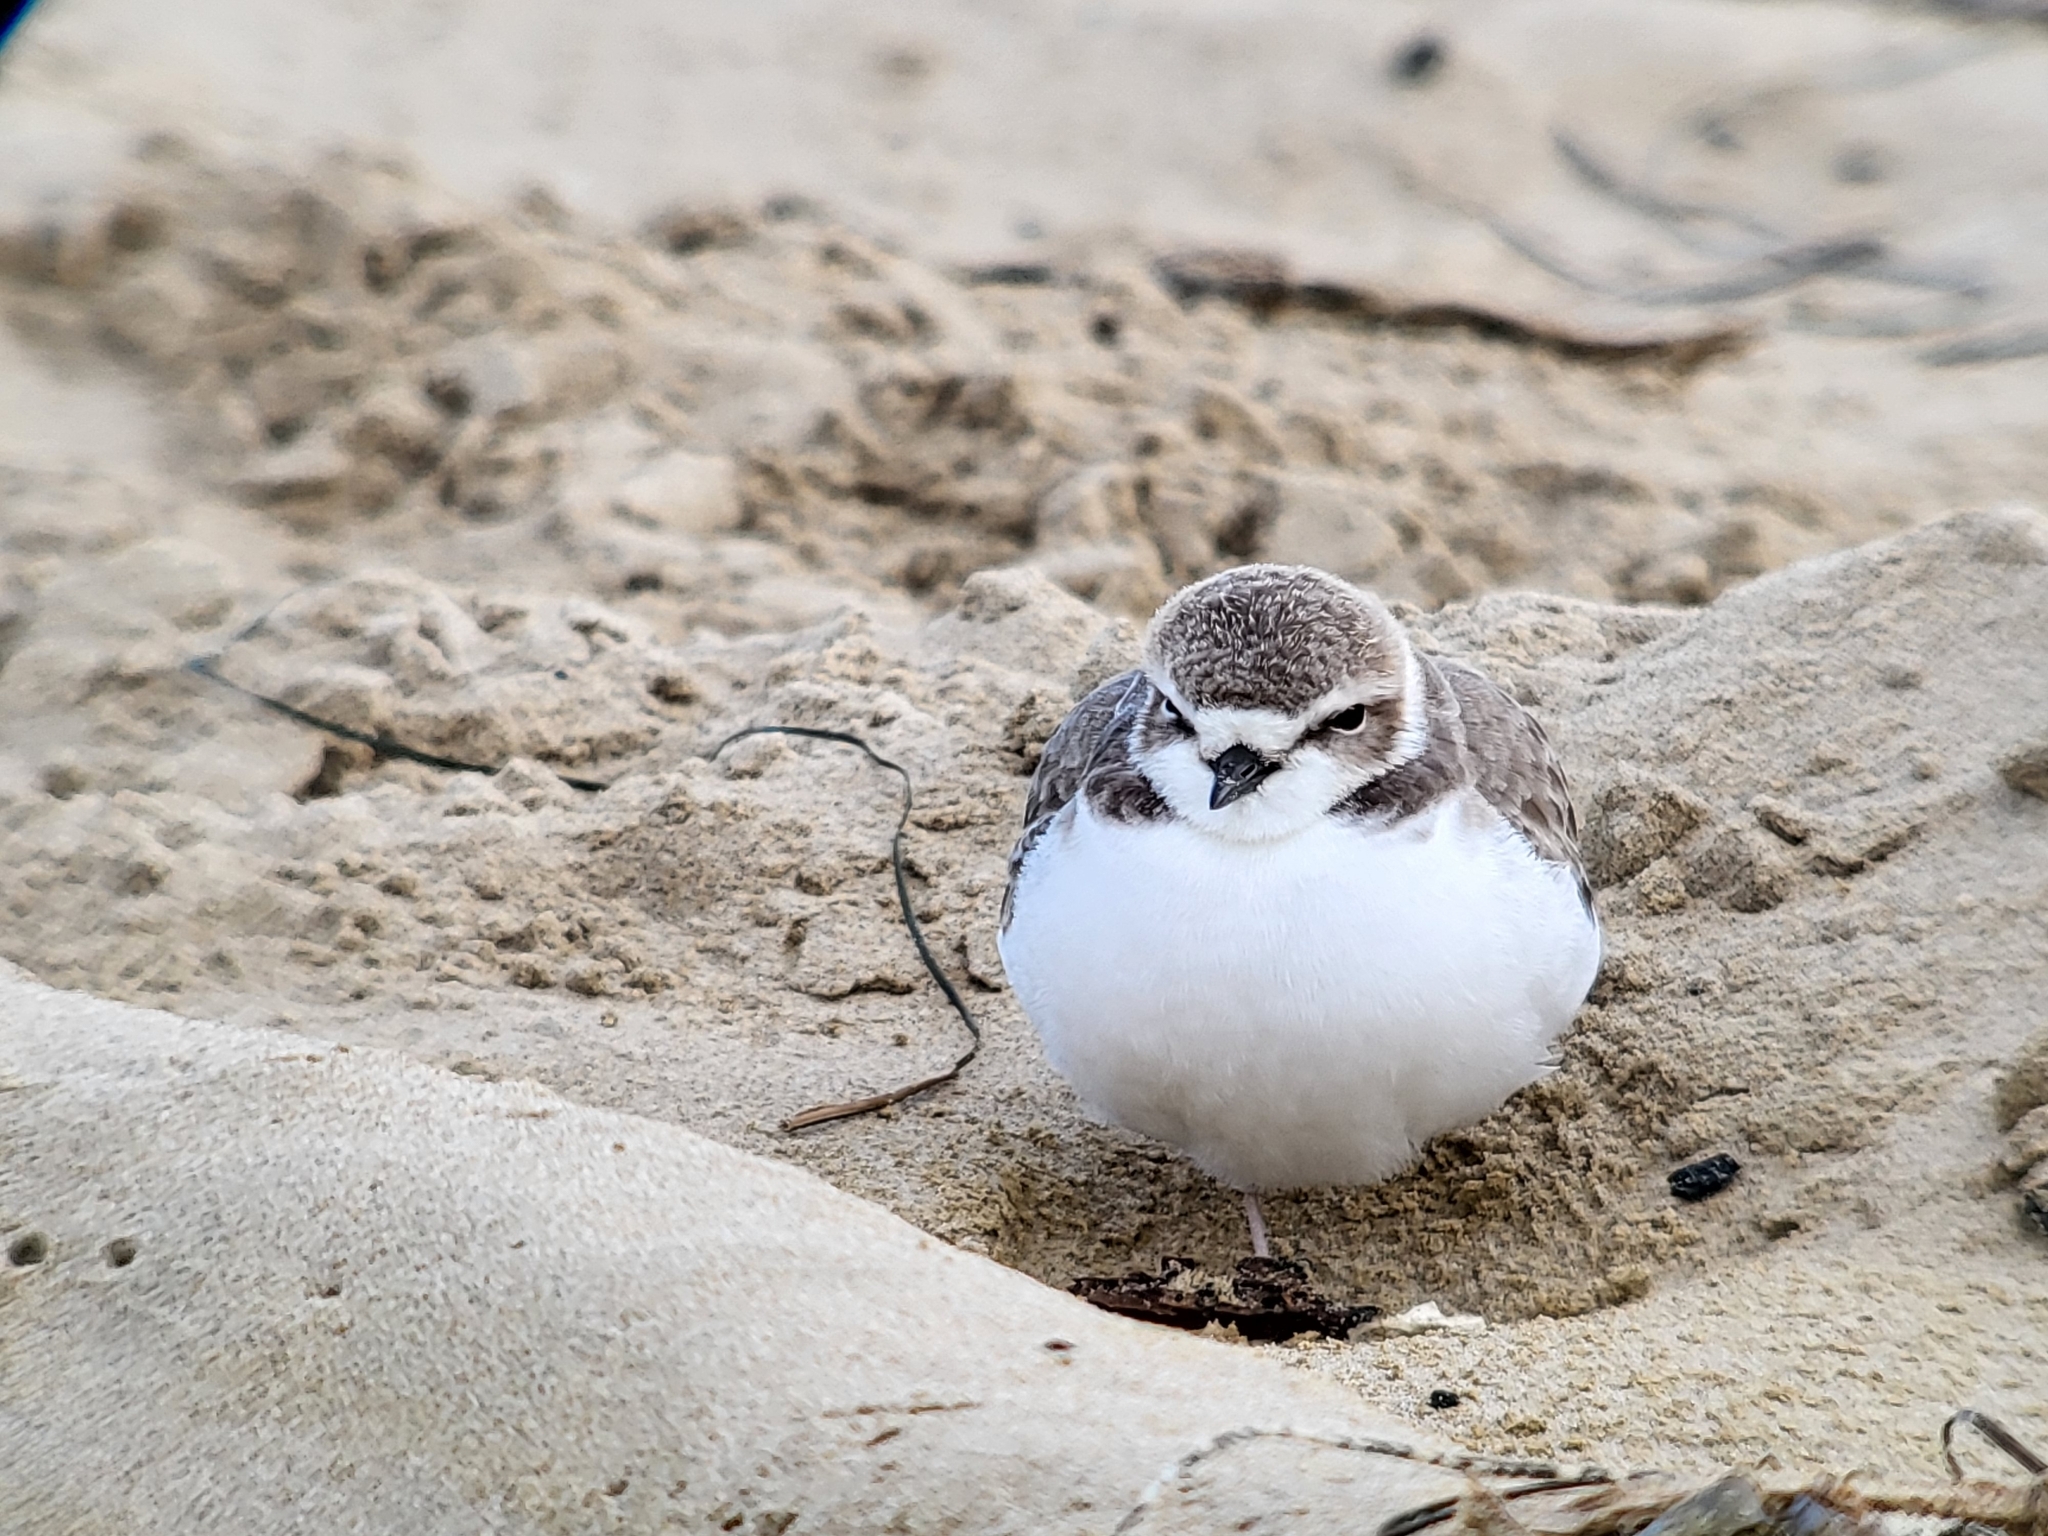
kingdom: Animalia
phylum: Chordata
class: Aves
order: Charadriiformes
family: Charadriidae
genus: Anarhynchus
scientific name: Anarhynchus
